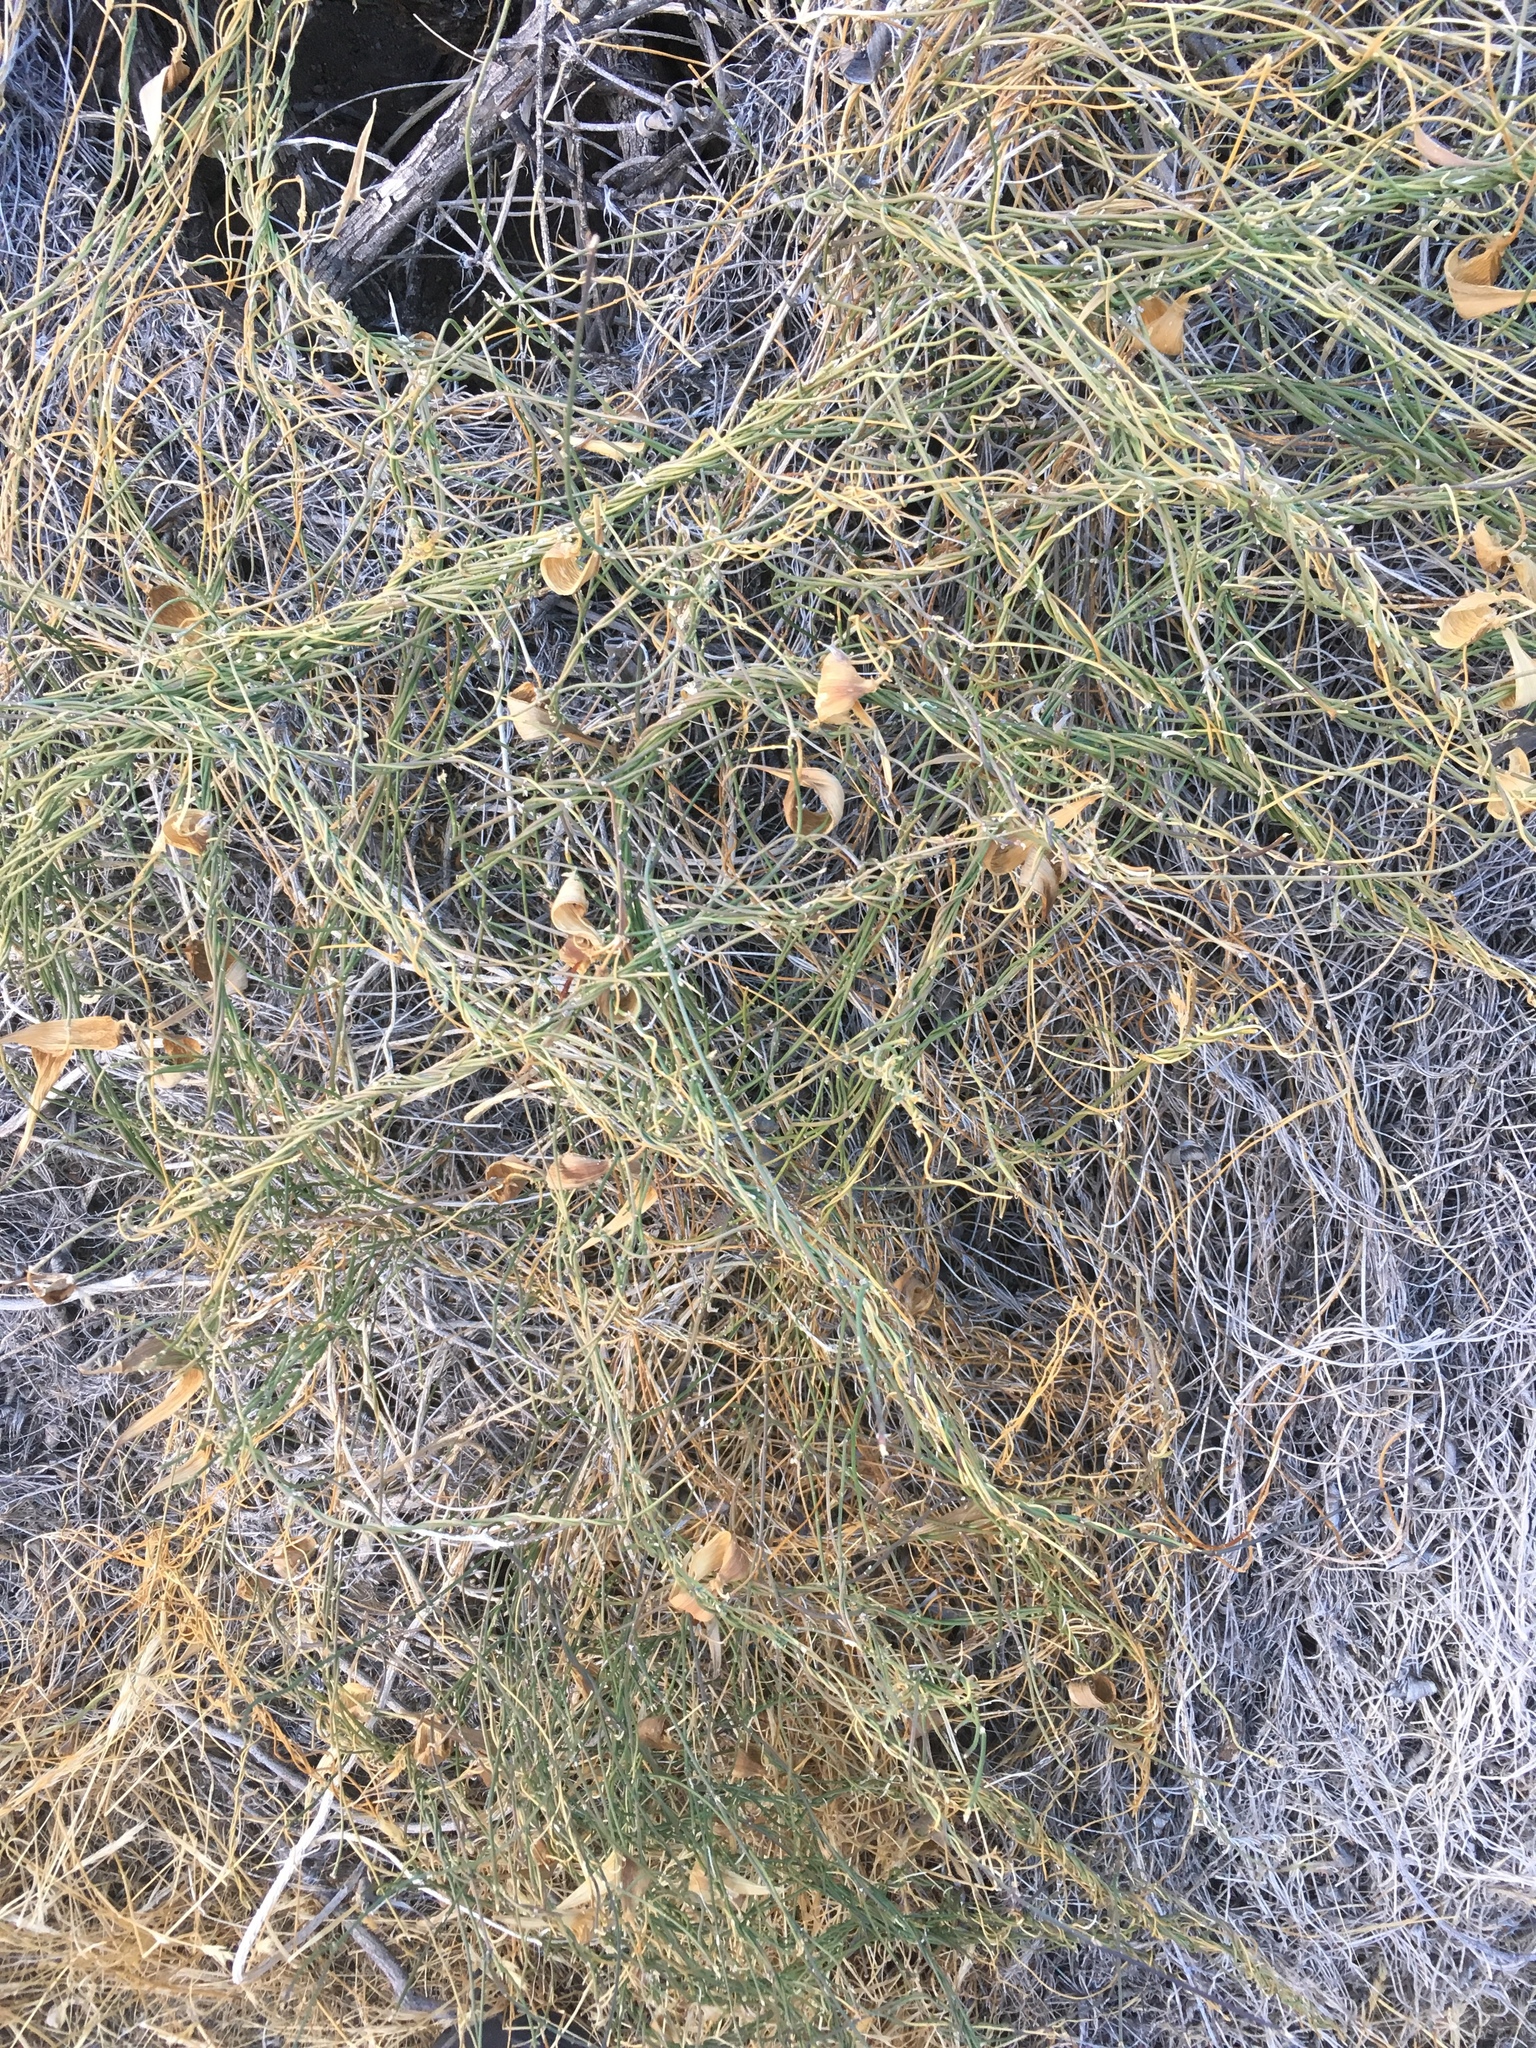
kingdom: Plantae
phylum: Tracheophyta
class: Magnoliopsida
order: Gentianales
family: Apocynaceae
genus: Funastrum
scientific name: Funastrum heterophyllum
